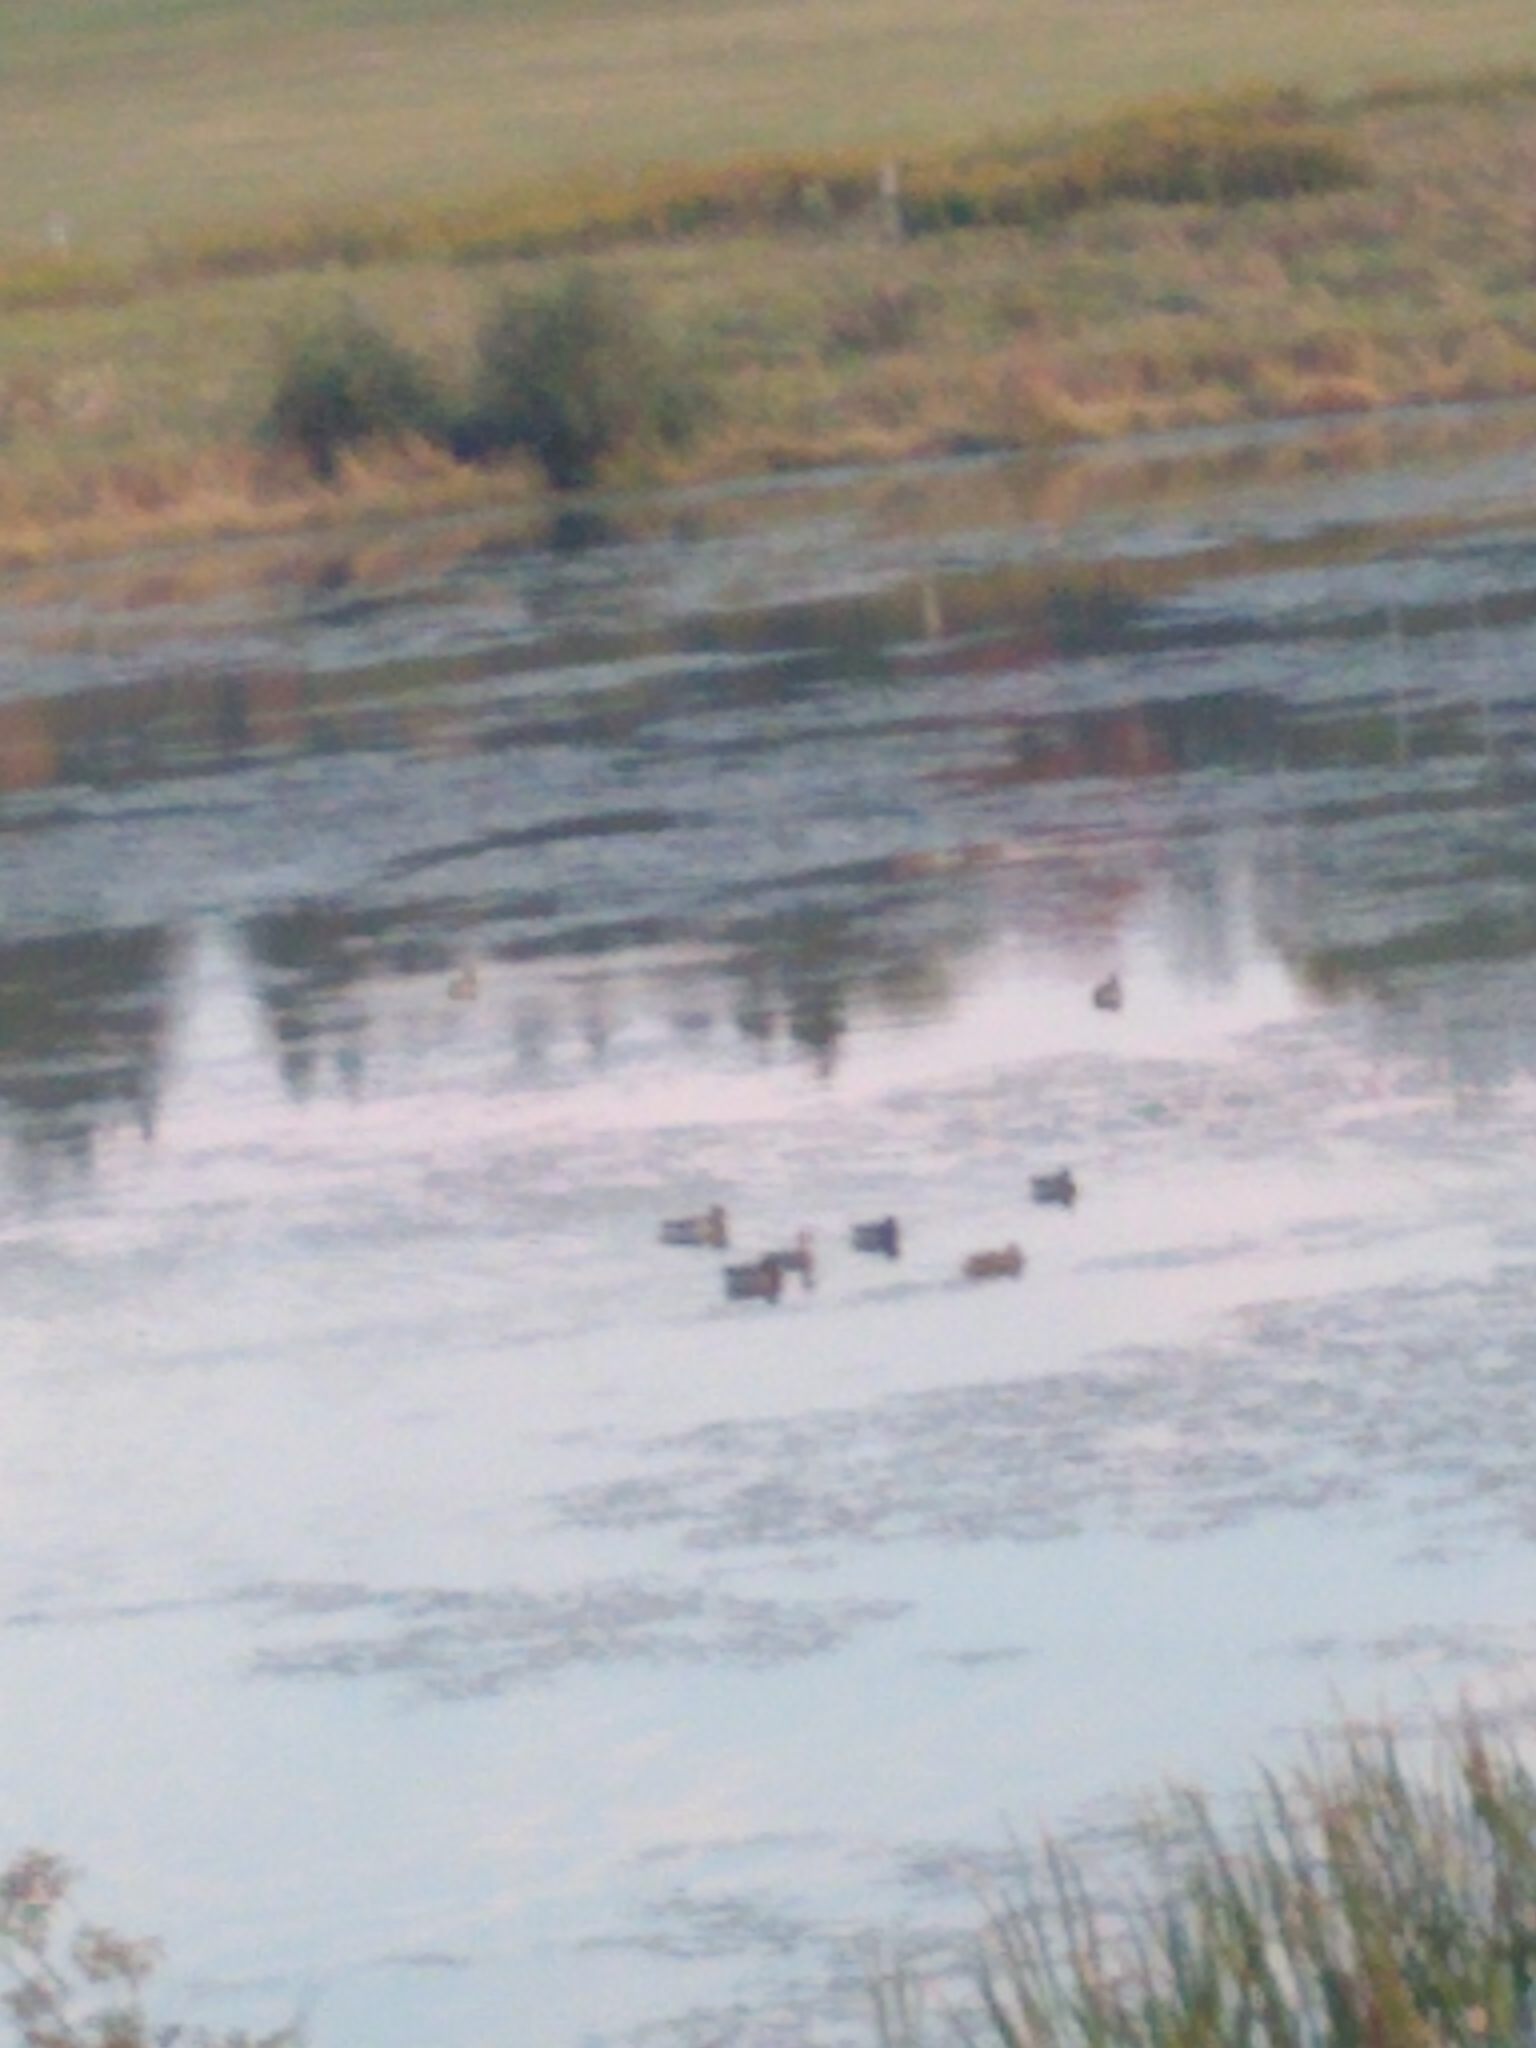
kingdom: Animalia
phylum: Chordata
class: Aves
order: Anseriformes
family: Anatidae
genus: Anas
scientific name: Anas platyrhynchos
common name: Mallard
